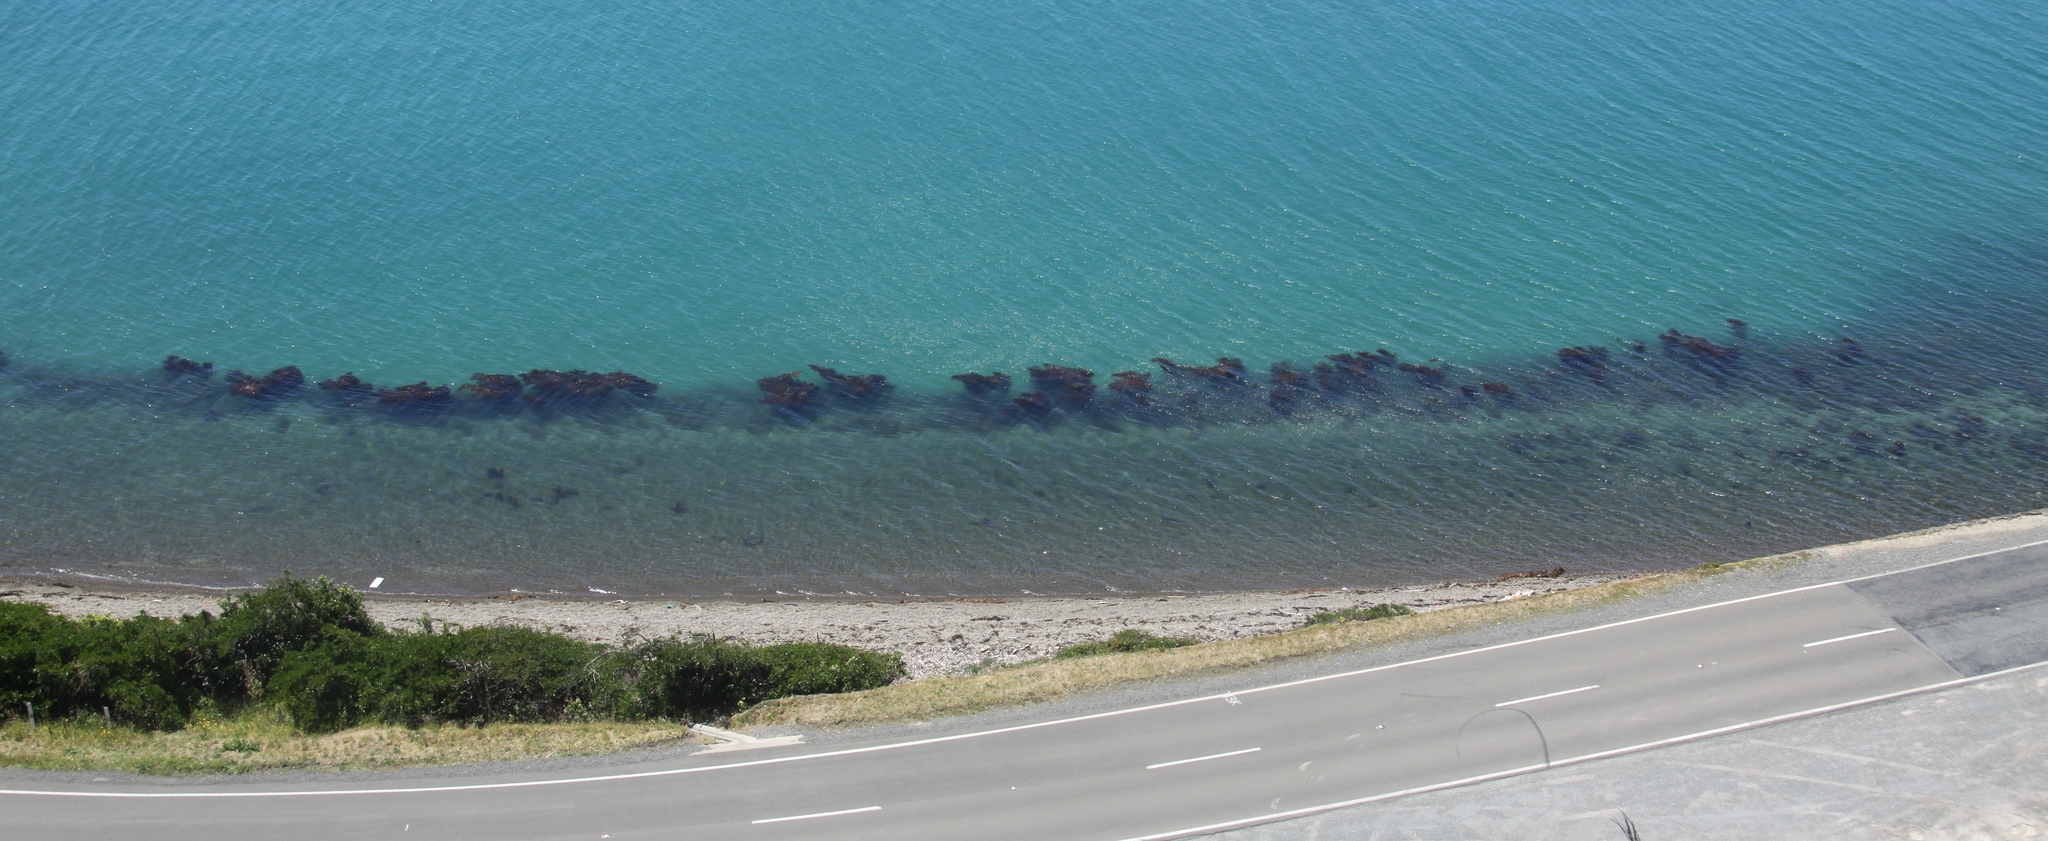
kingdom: Chromista
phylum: Ochrophyta
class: Phaeophyceae
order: Fucales
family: Sargassaceae
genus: Carpophyllum
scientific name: Carpophyllum maschalocarpum
